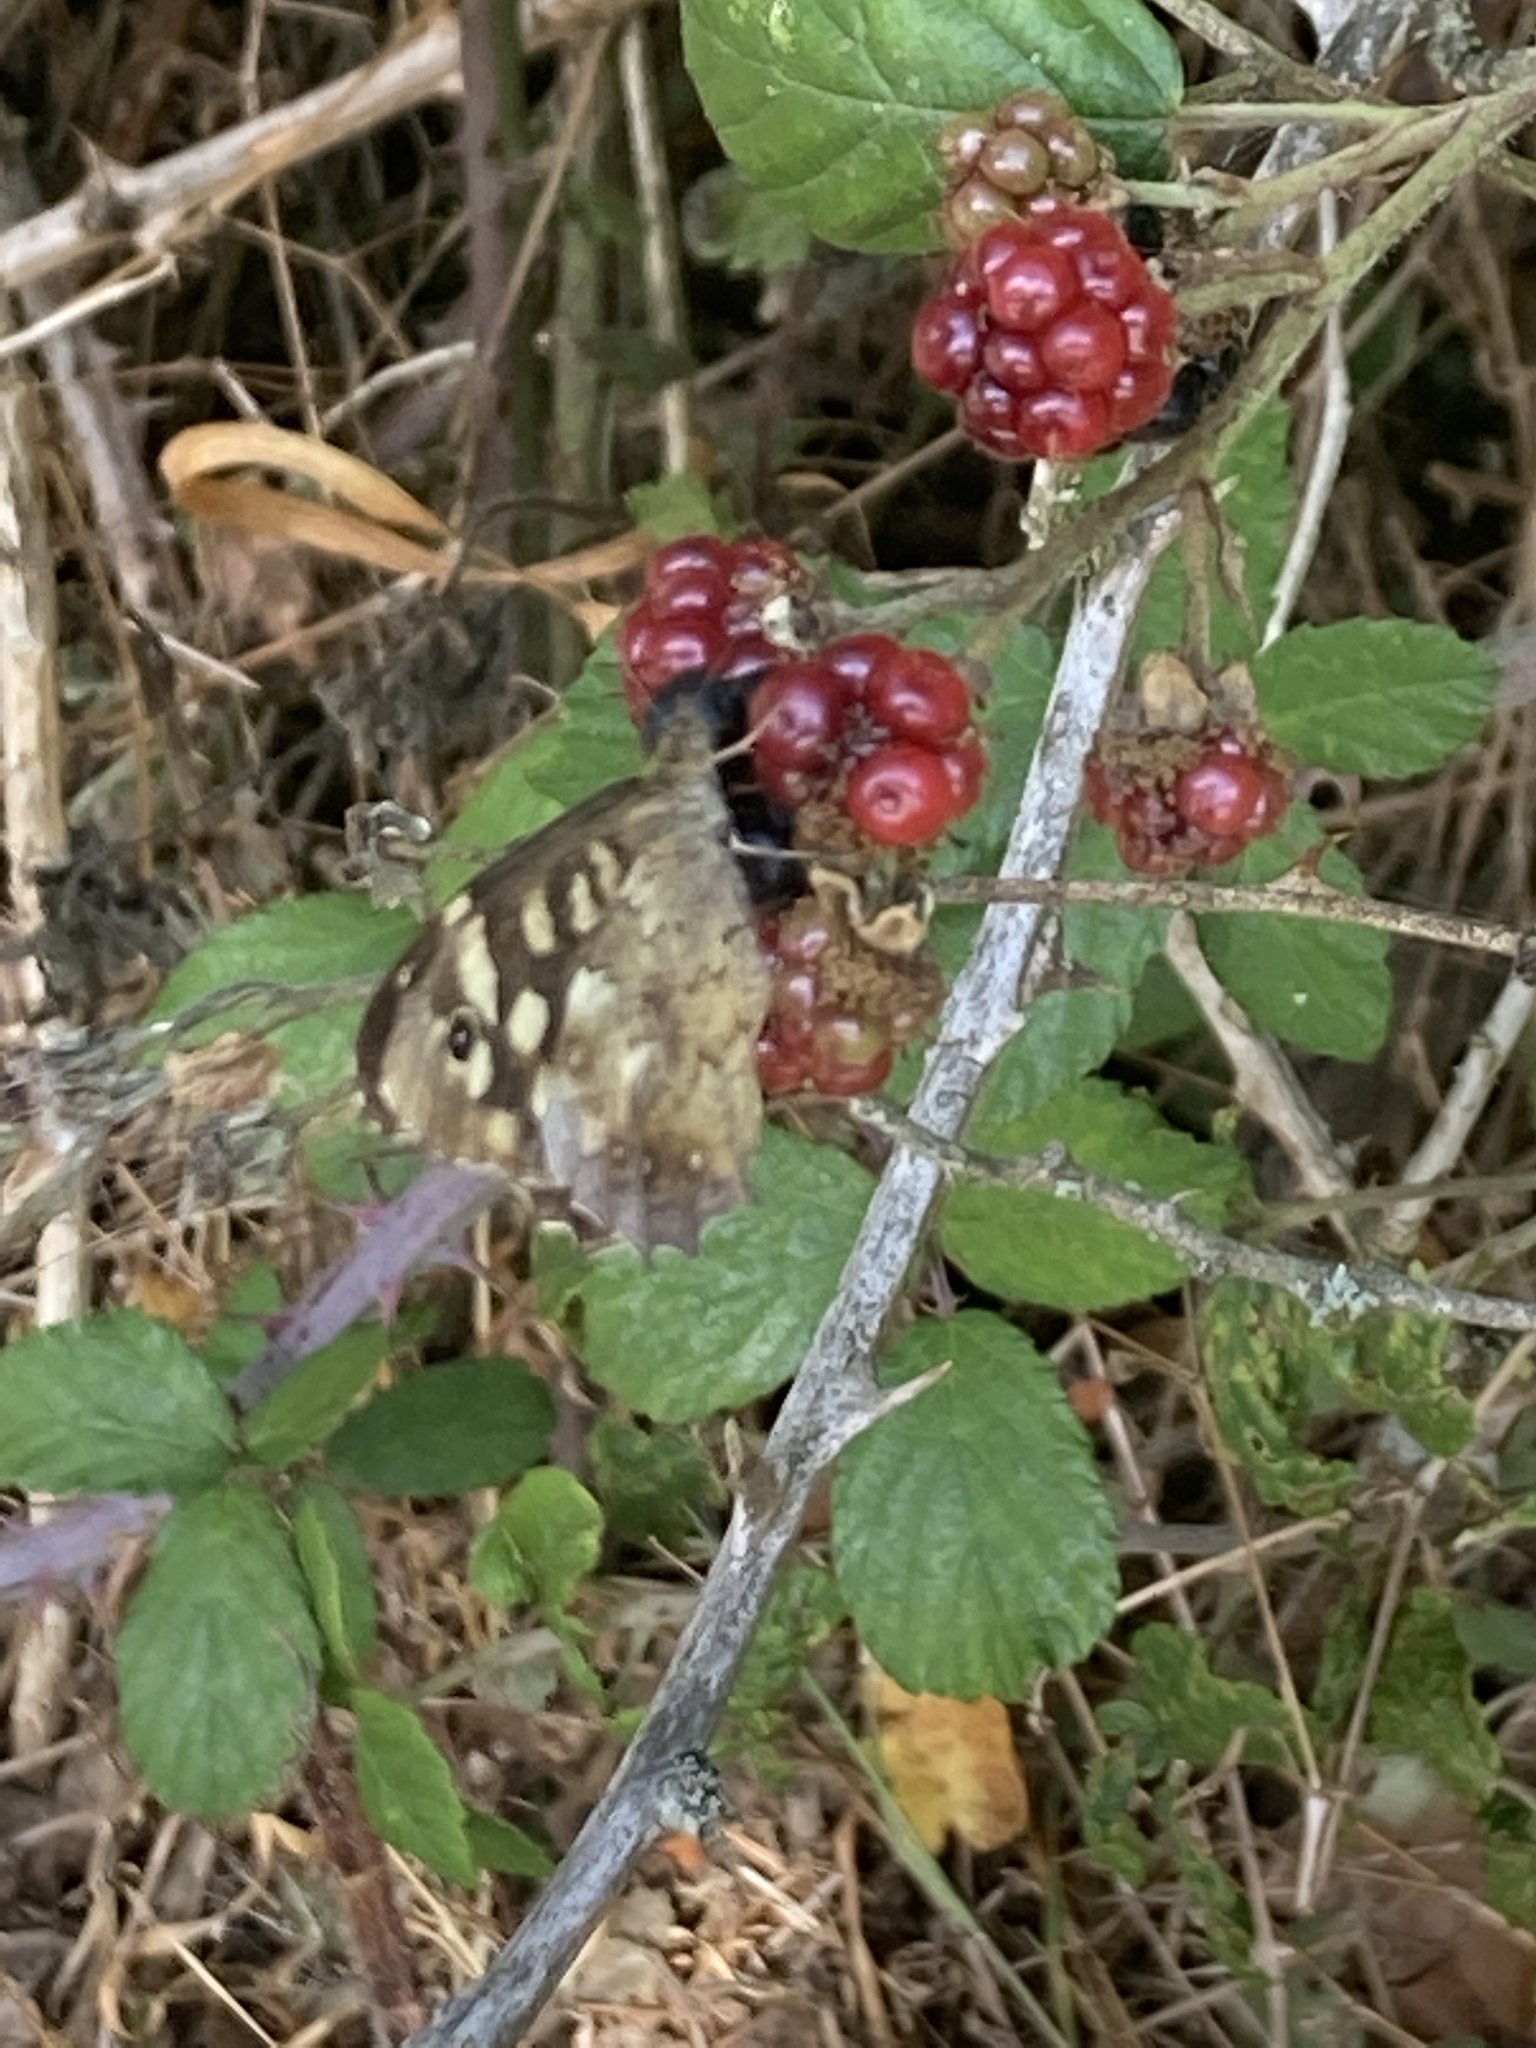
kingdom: Animalia
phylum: Arthropoda
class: Insecta
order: Lepidoptera
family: Nymphalidae
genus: Pararge
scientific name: Pararge aegeria
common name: Speckled wood
